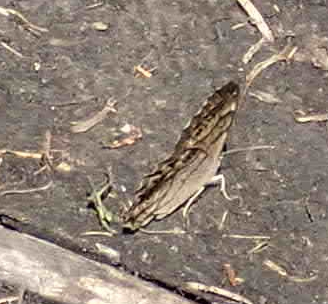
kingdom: Animalia
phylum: Arthropoda
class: Insecta
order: Lepidoptera
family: Nymphalidae
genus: Lethe
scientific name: Lethe anthedon
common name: Northern pearly-eye
